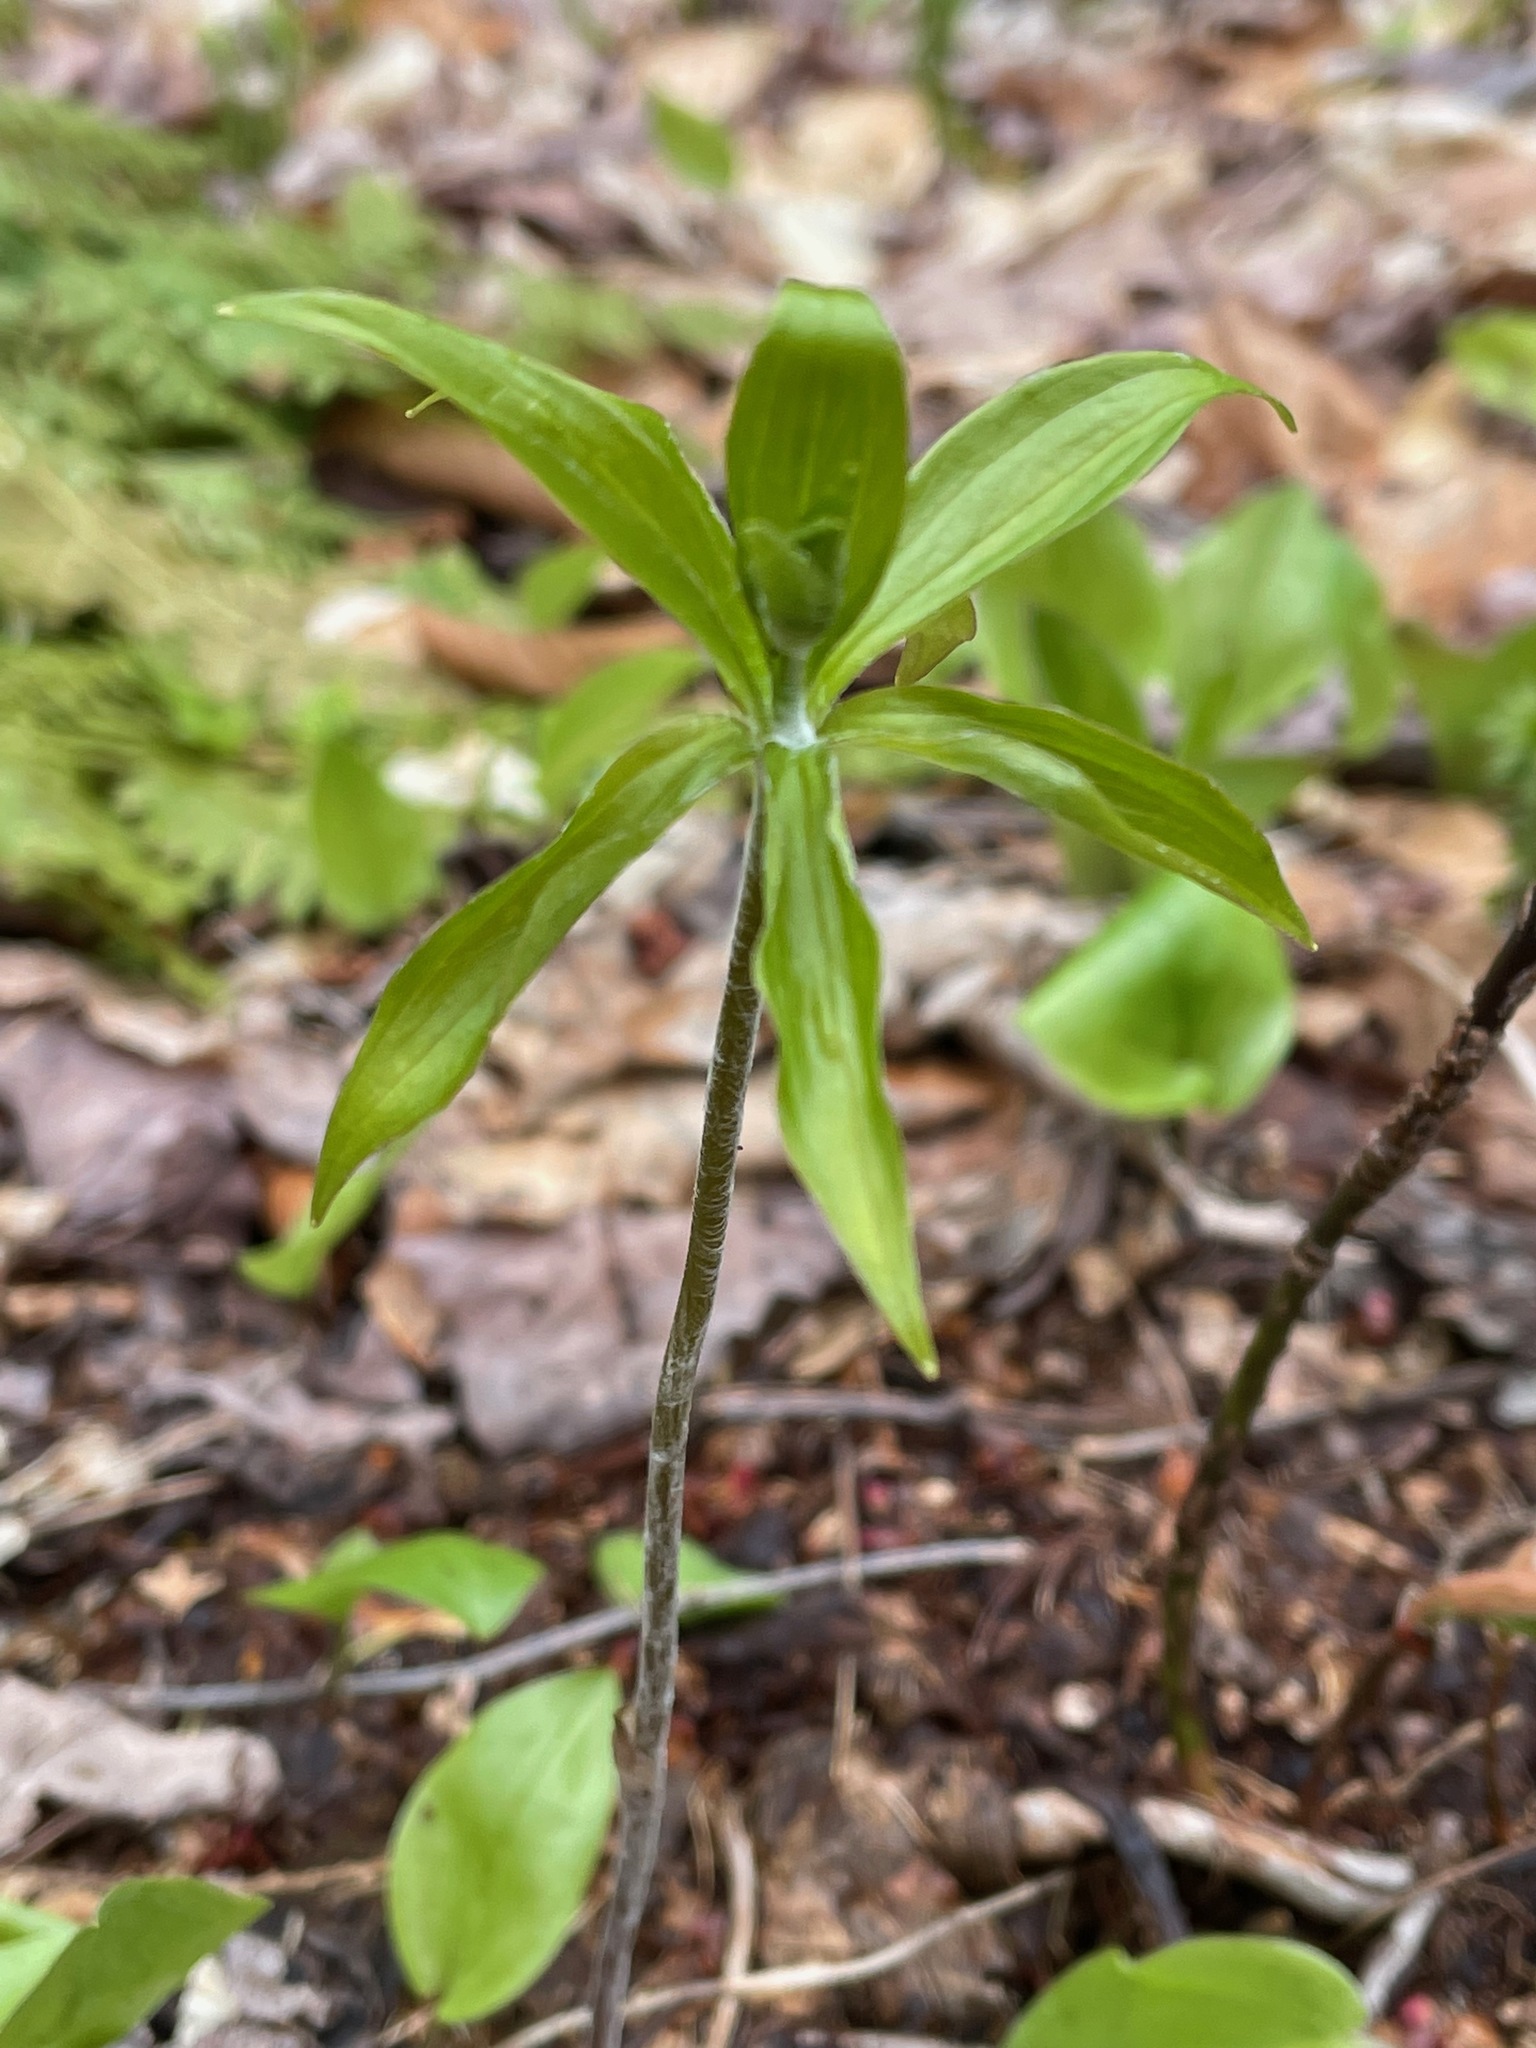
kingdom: Plantae
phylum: Tracheophyta
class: Liliopsida
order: Liliales
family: Liliaceae
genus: Medeola
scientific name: Medeola virginiana
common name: Indian cucumber-root
